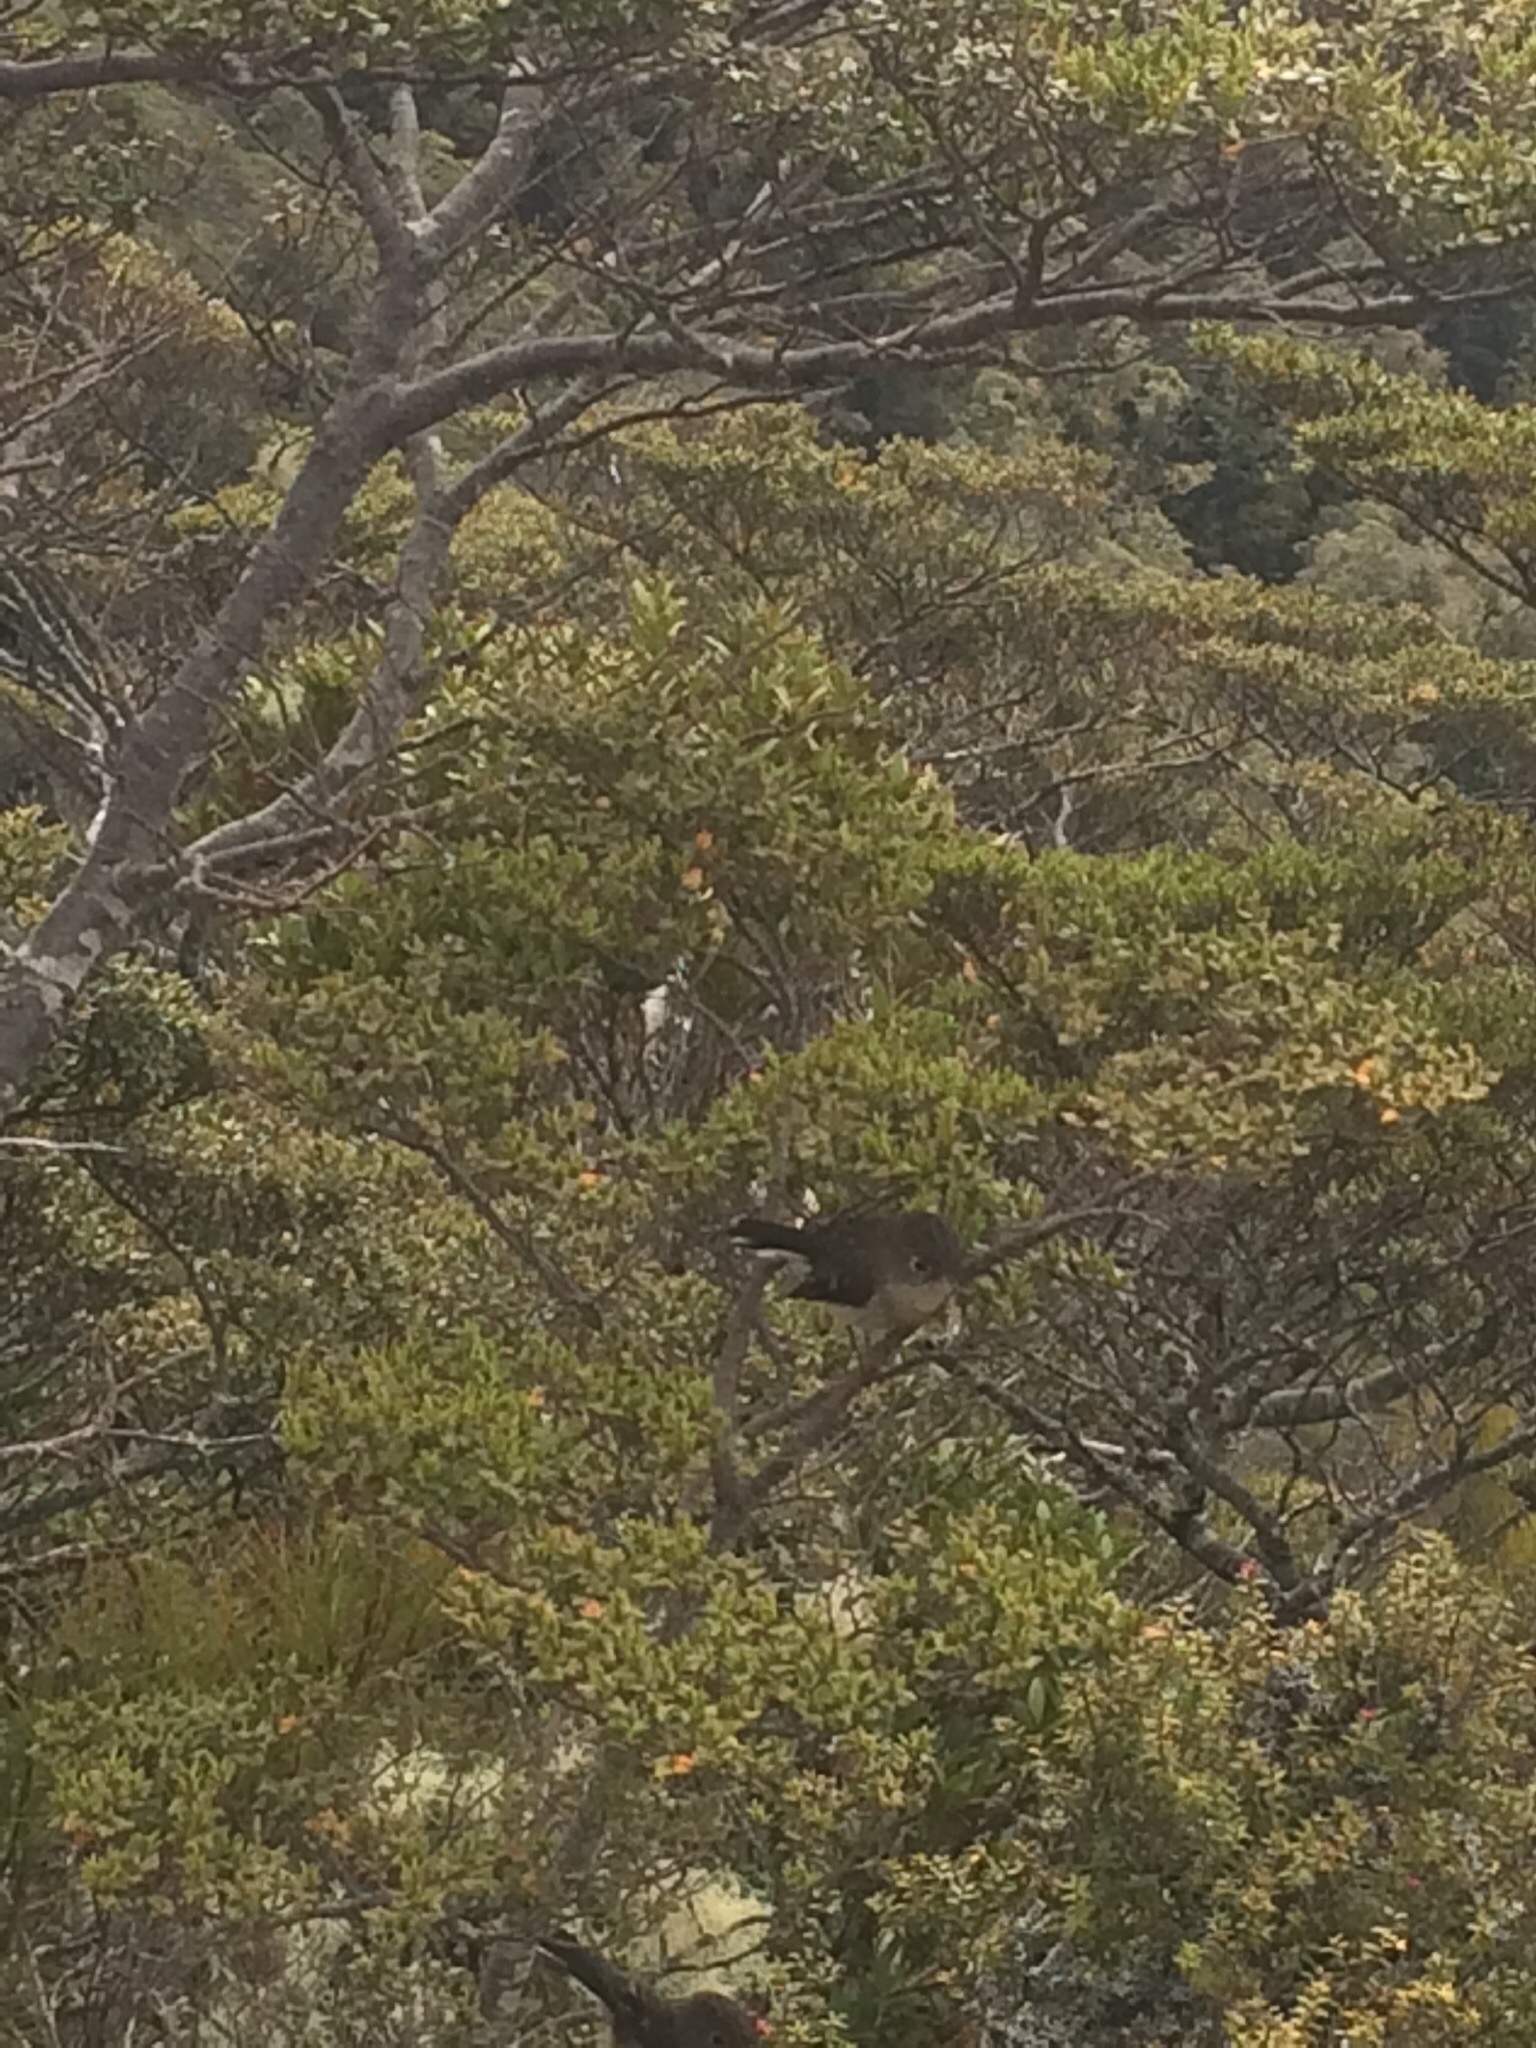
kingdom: Animalia
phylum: Chordata
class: Aves
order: Passeriformes
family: Petroicidae
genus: Petroica
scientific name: Petroica macrocephala
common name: Tomtit
